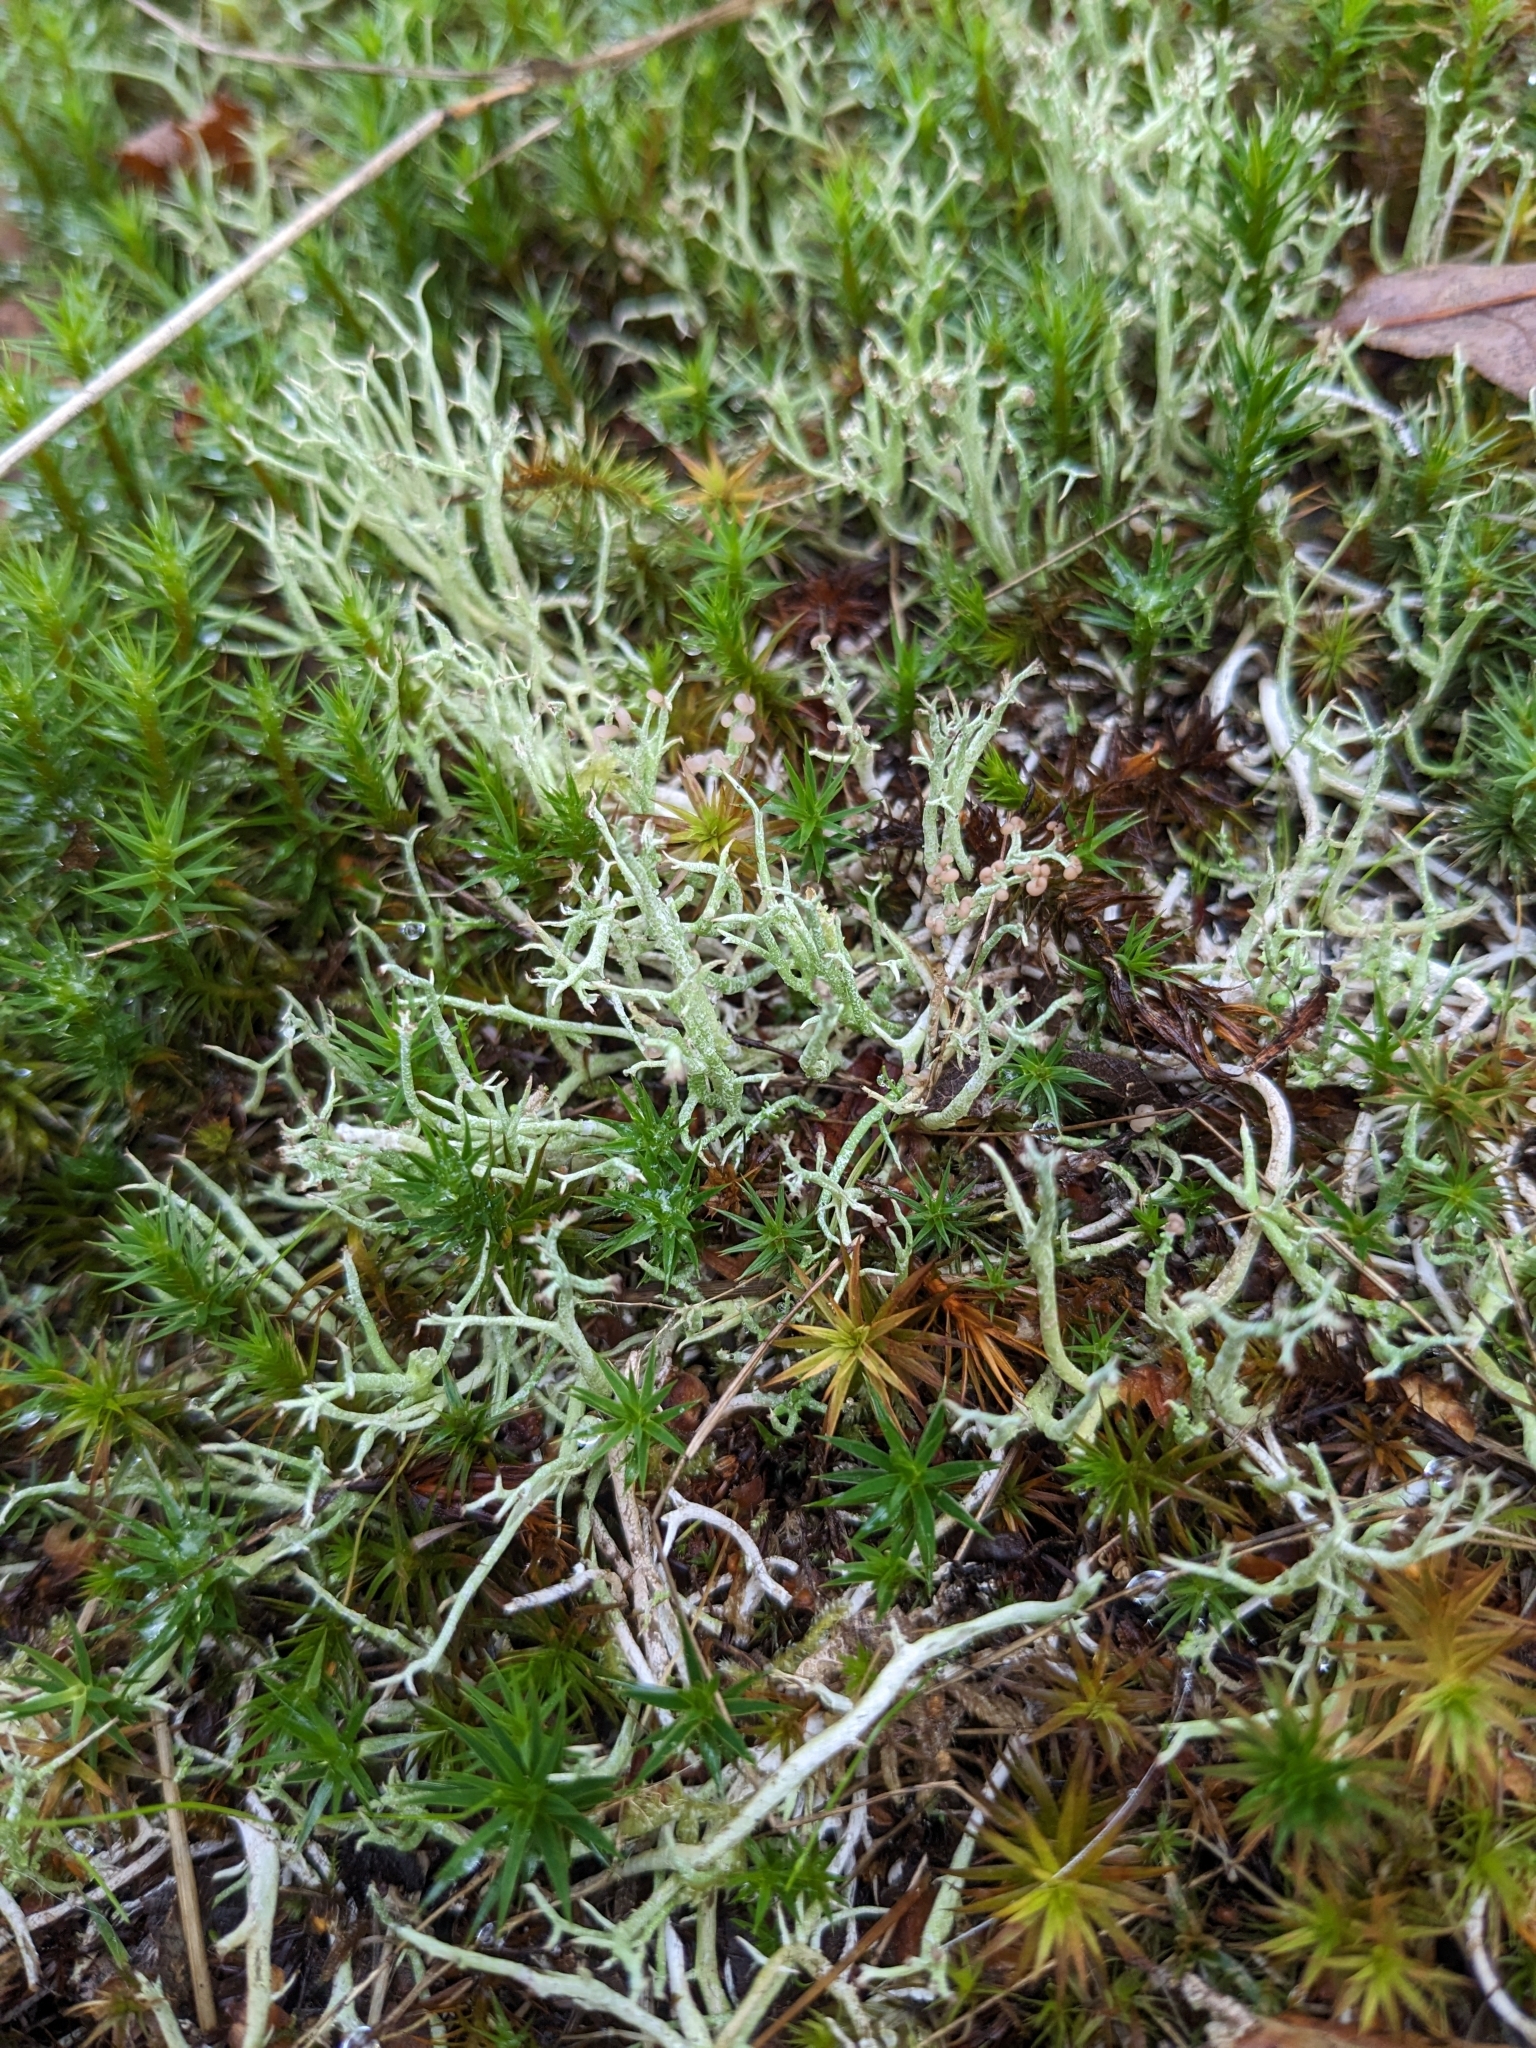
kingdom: Fungi
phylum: Ascomycota
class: Lecanoromycetes
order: Lecanorales
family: Cladoniaceae
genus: Cladonia
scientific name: Cladonia furcata
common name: Many-forked cladonia
